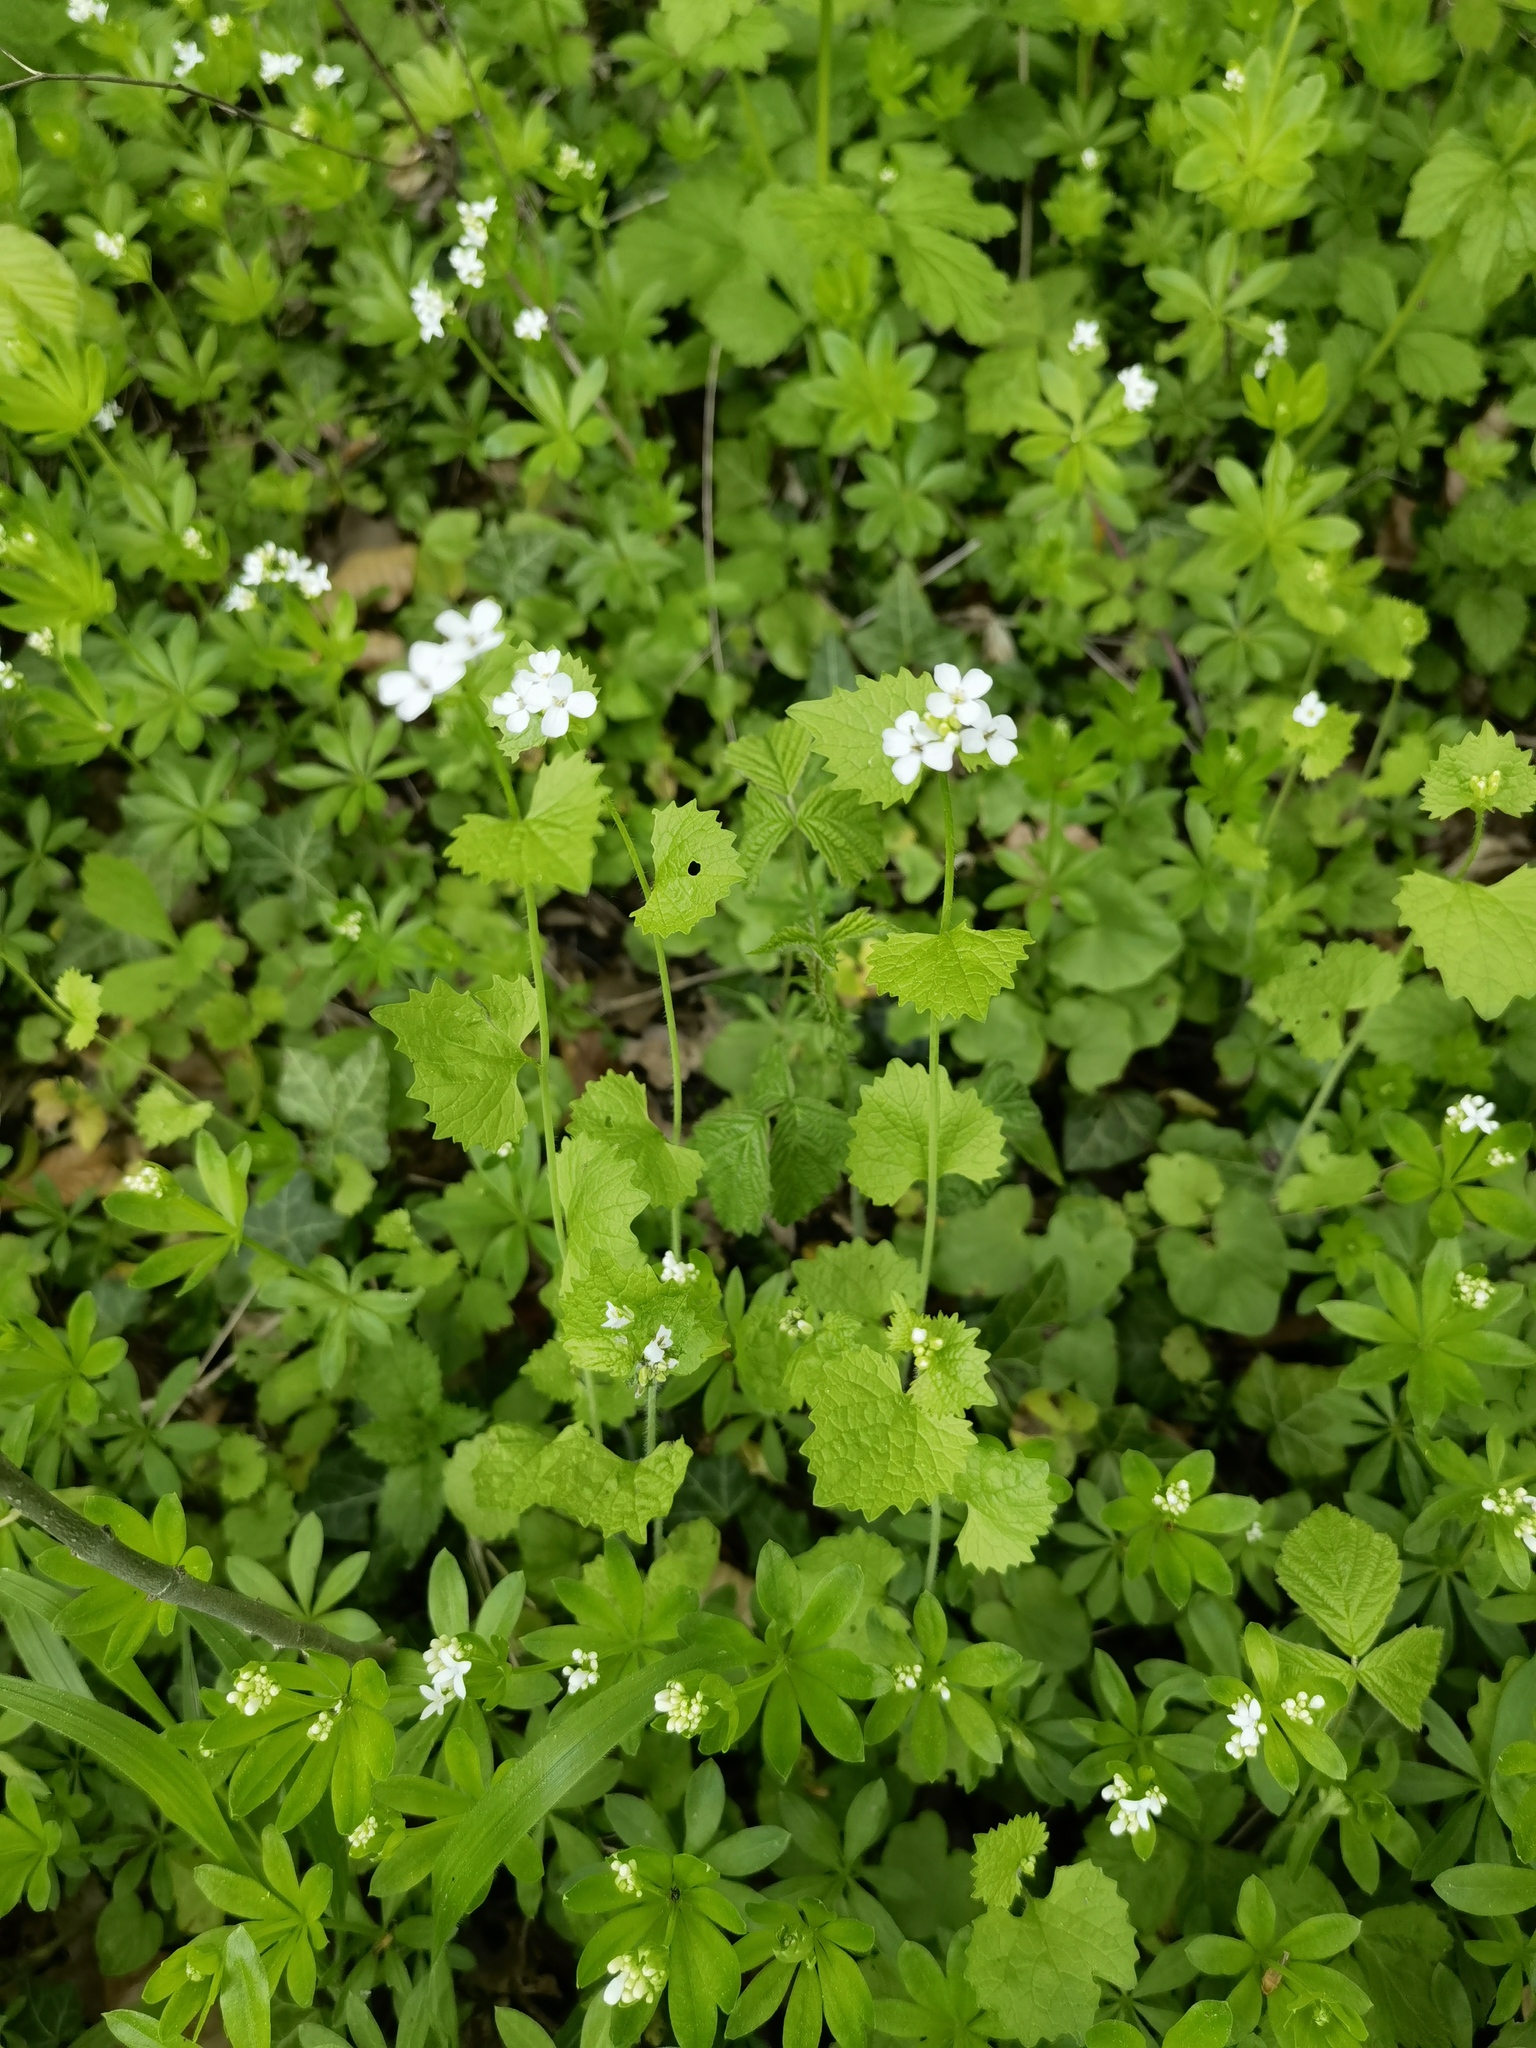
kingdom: Plantae
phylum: Tracheophyta
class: Magnoliopsida
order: Brassicales
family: Brassicaceae
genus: Alliaria
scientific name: Alliaria petiolata
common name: Garlic mustard
